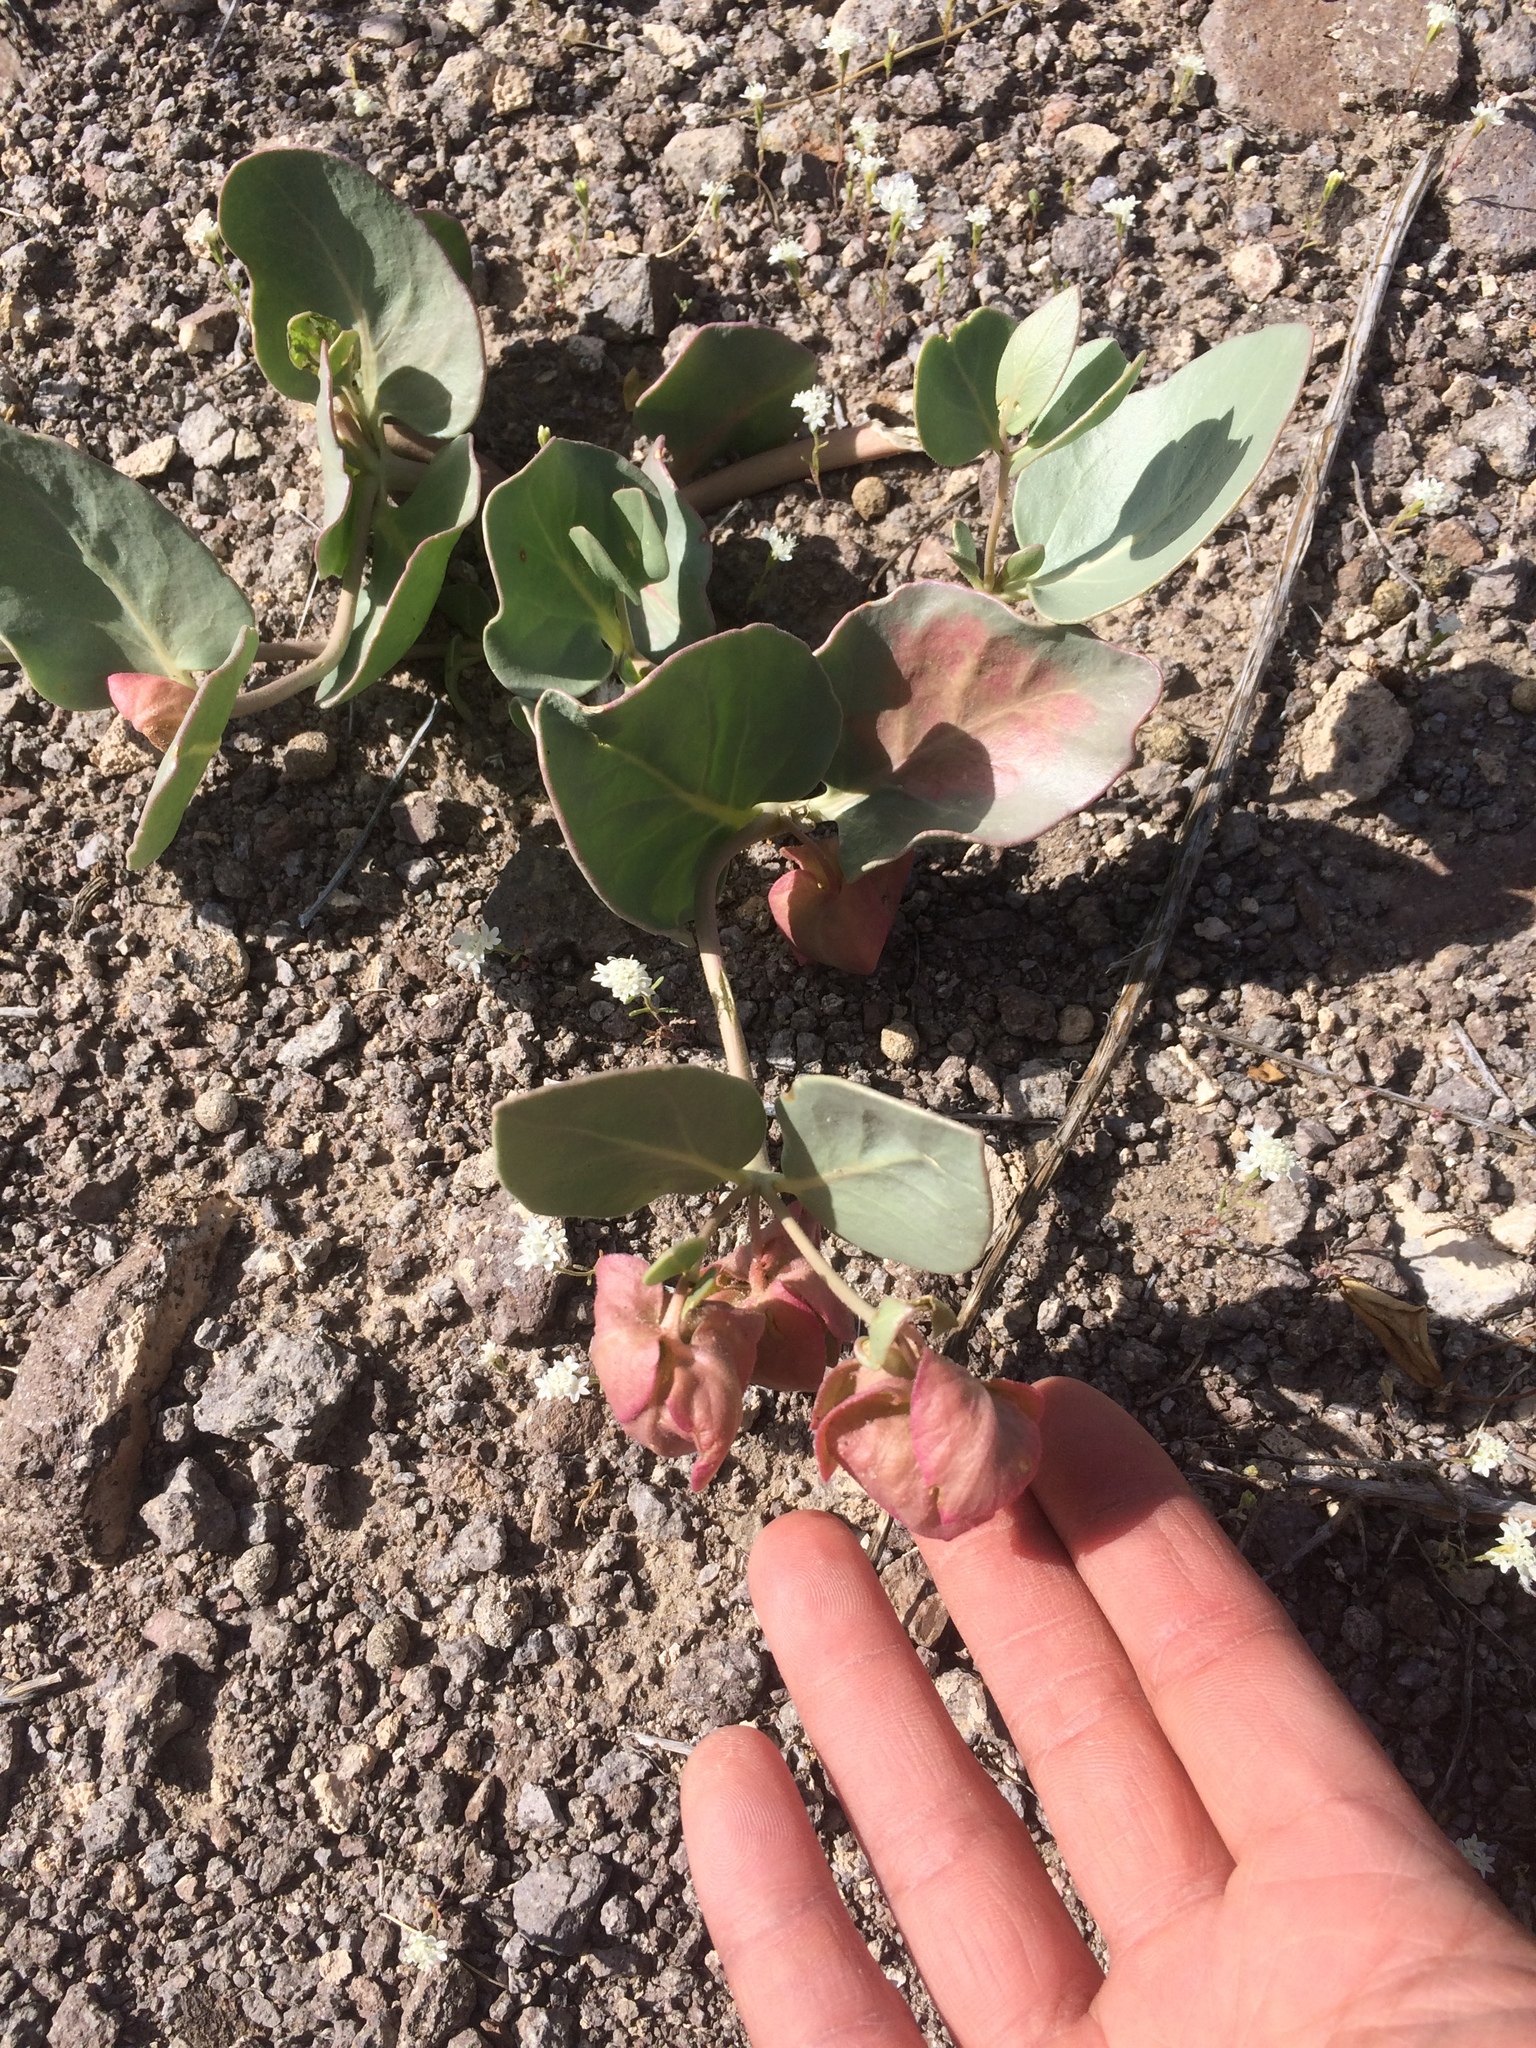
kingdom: Plantae
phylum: Tracheophyta
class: Magnoliopsida
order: Caryophyllales
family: Nyctaginaceae
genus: Mirabilis
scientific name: Mirabilis alipes
